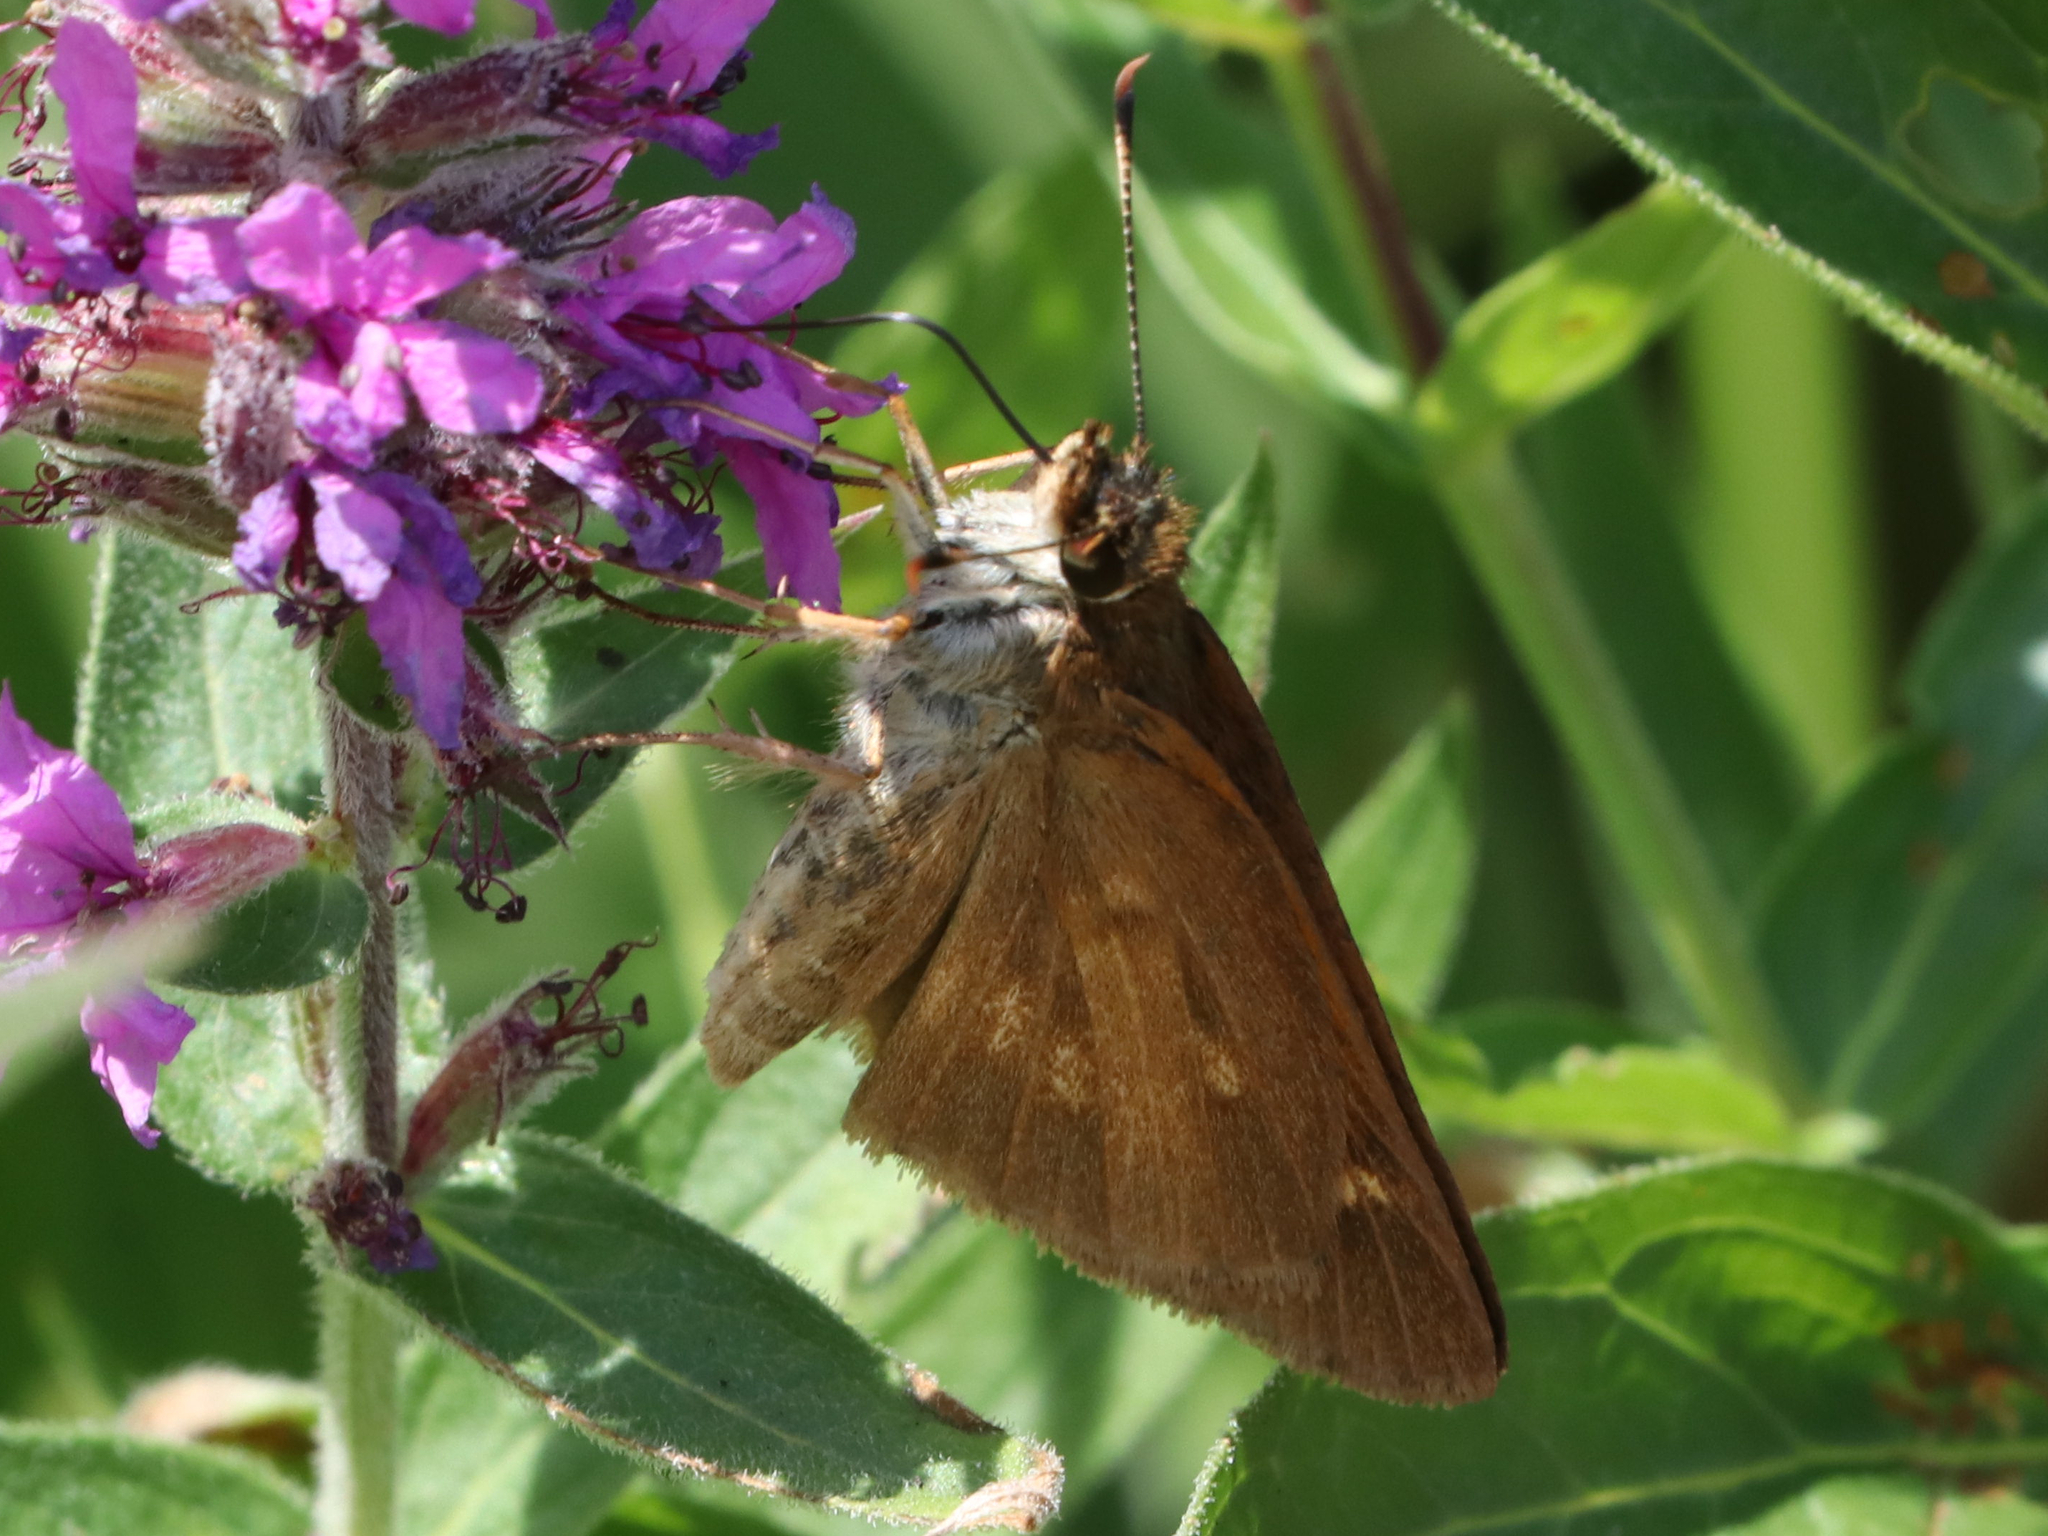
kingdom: Animalia
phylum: Arthropoda
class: Insecta
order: Lepidoptera
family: Hesperiidae
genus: Poanes
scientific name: Poanes viator
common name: Broad-winged skipper
